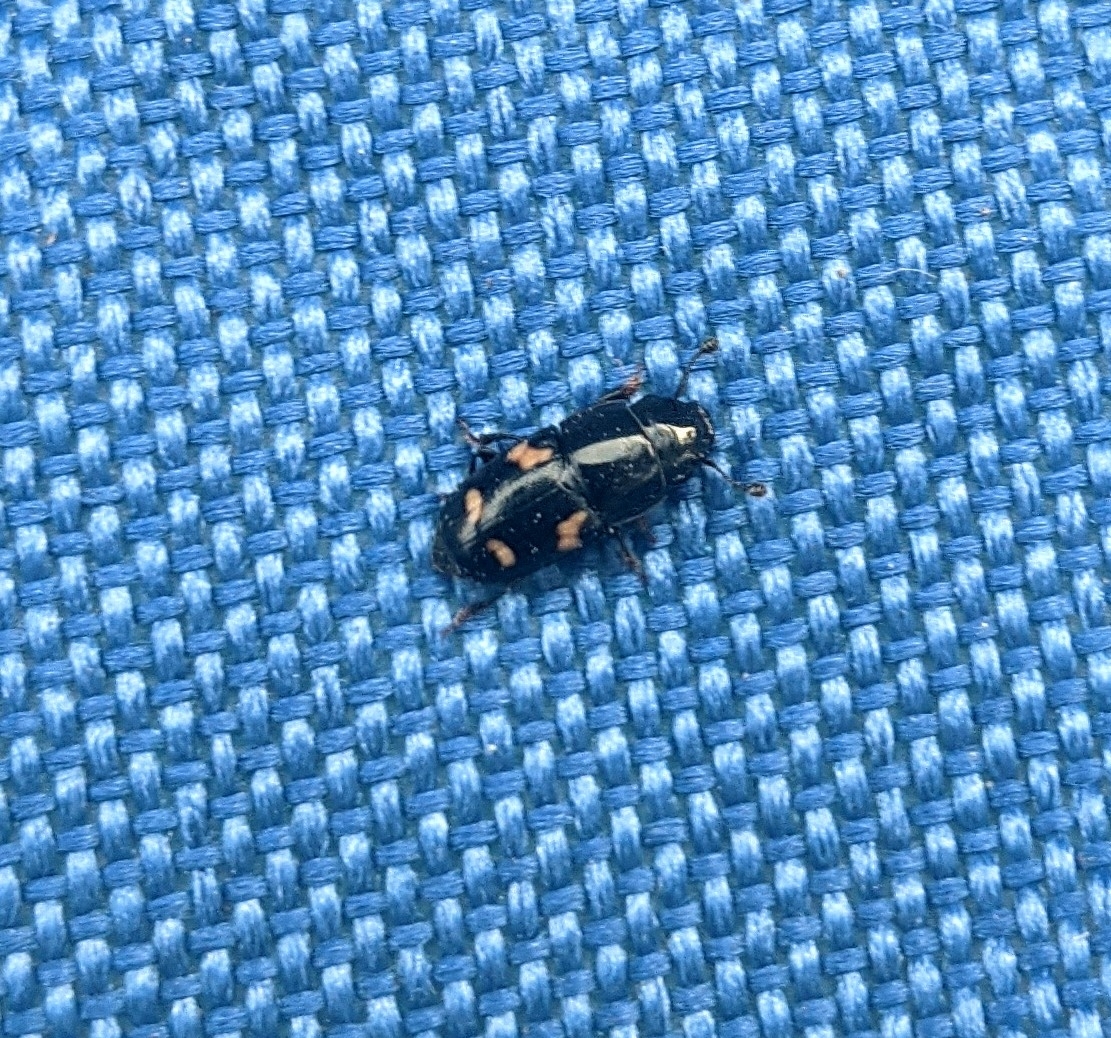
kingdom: Animalia
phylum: Arthropoda
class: Insecta
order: Coleoptera
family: Nitidulidae
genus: Glischrochilus
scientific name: Glischrochilus quadrisignatus
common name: Picnic beetle
